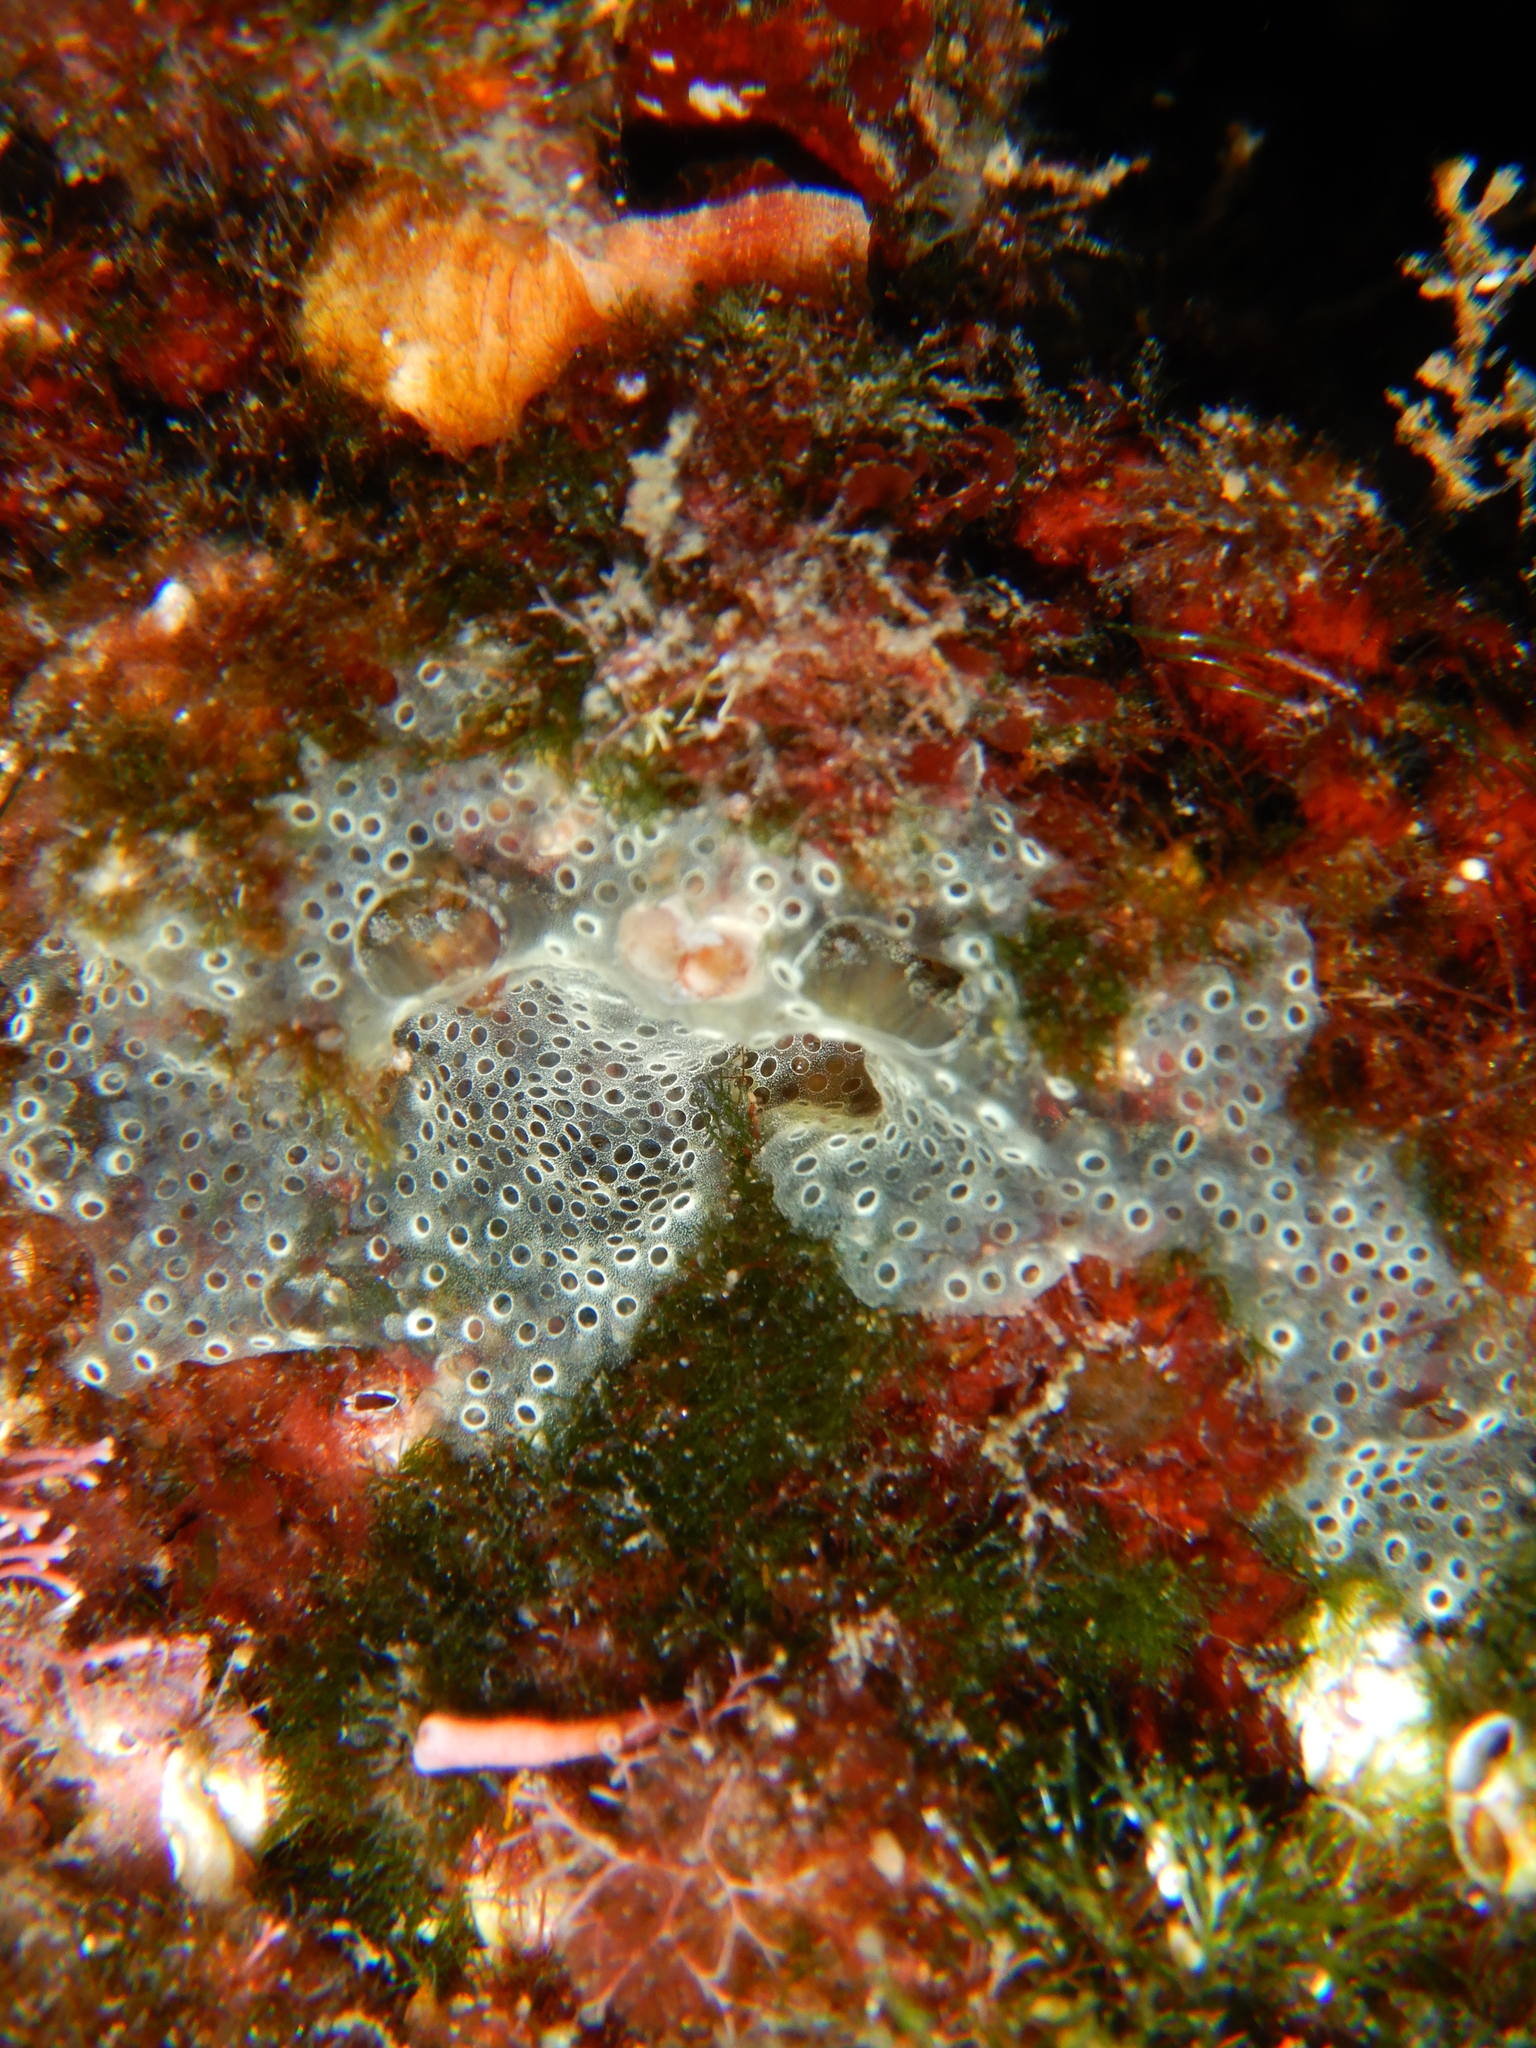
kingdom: Animalia
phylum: Chordata
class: Ascidiacea
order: Aplousobranchia
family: Didemnidae
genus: Diplosoma
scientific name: Diplosoma spongiforme
